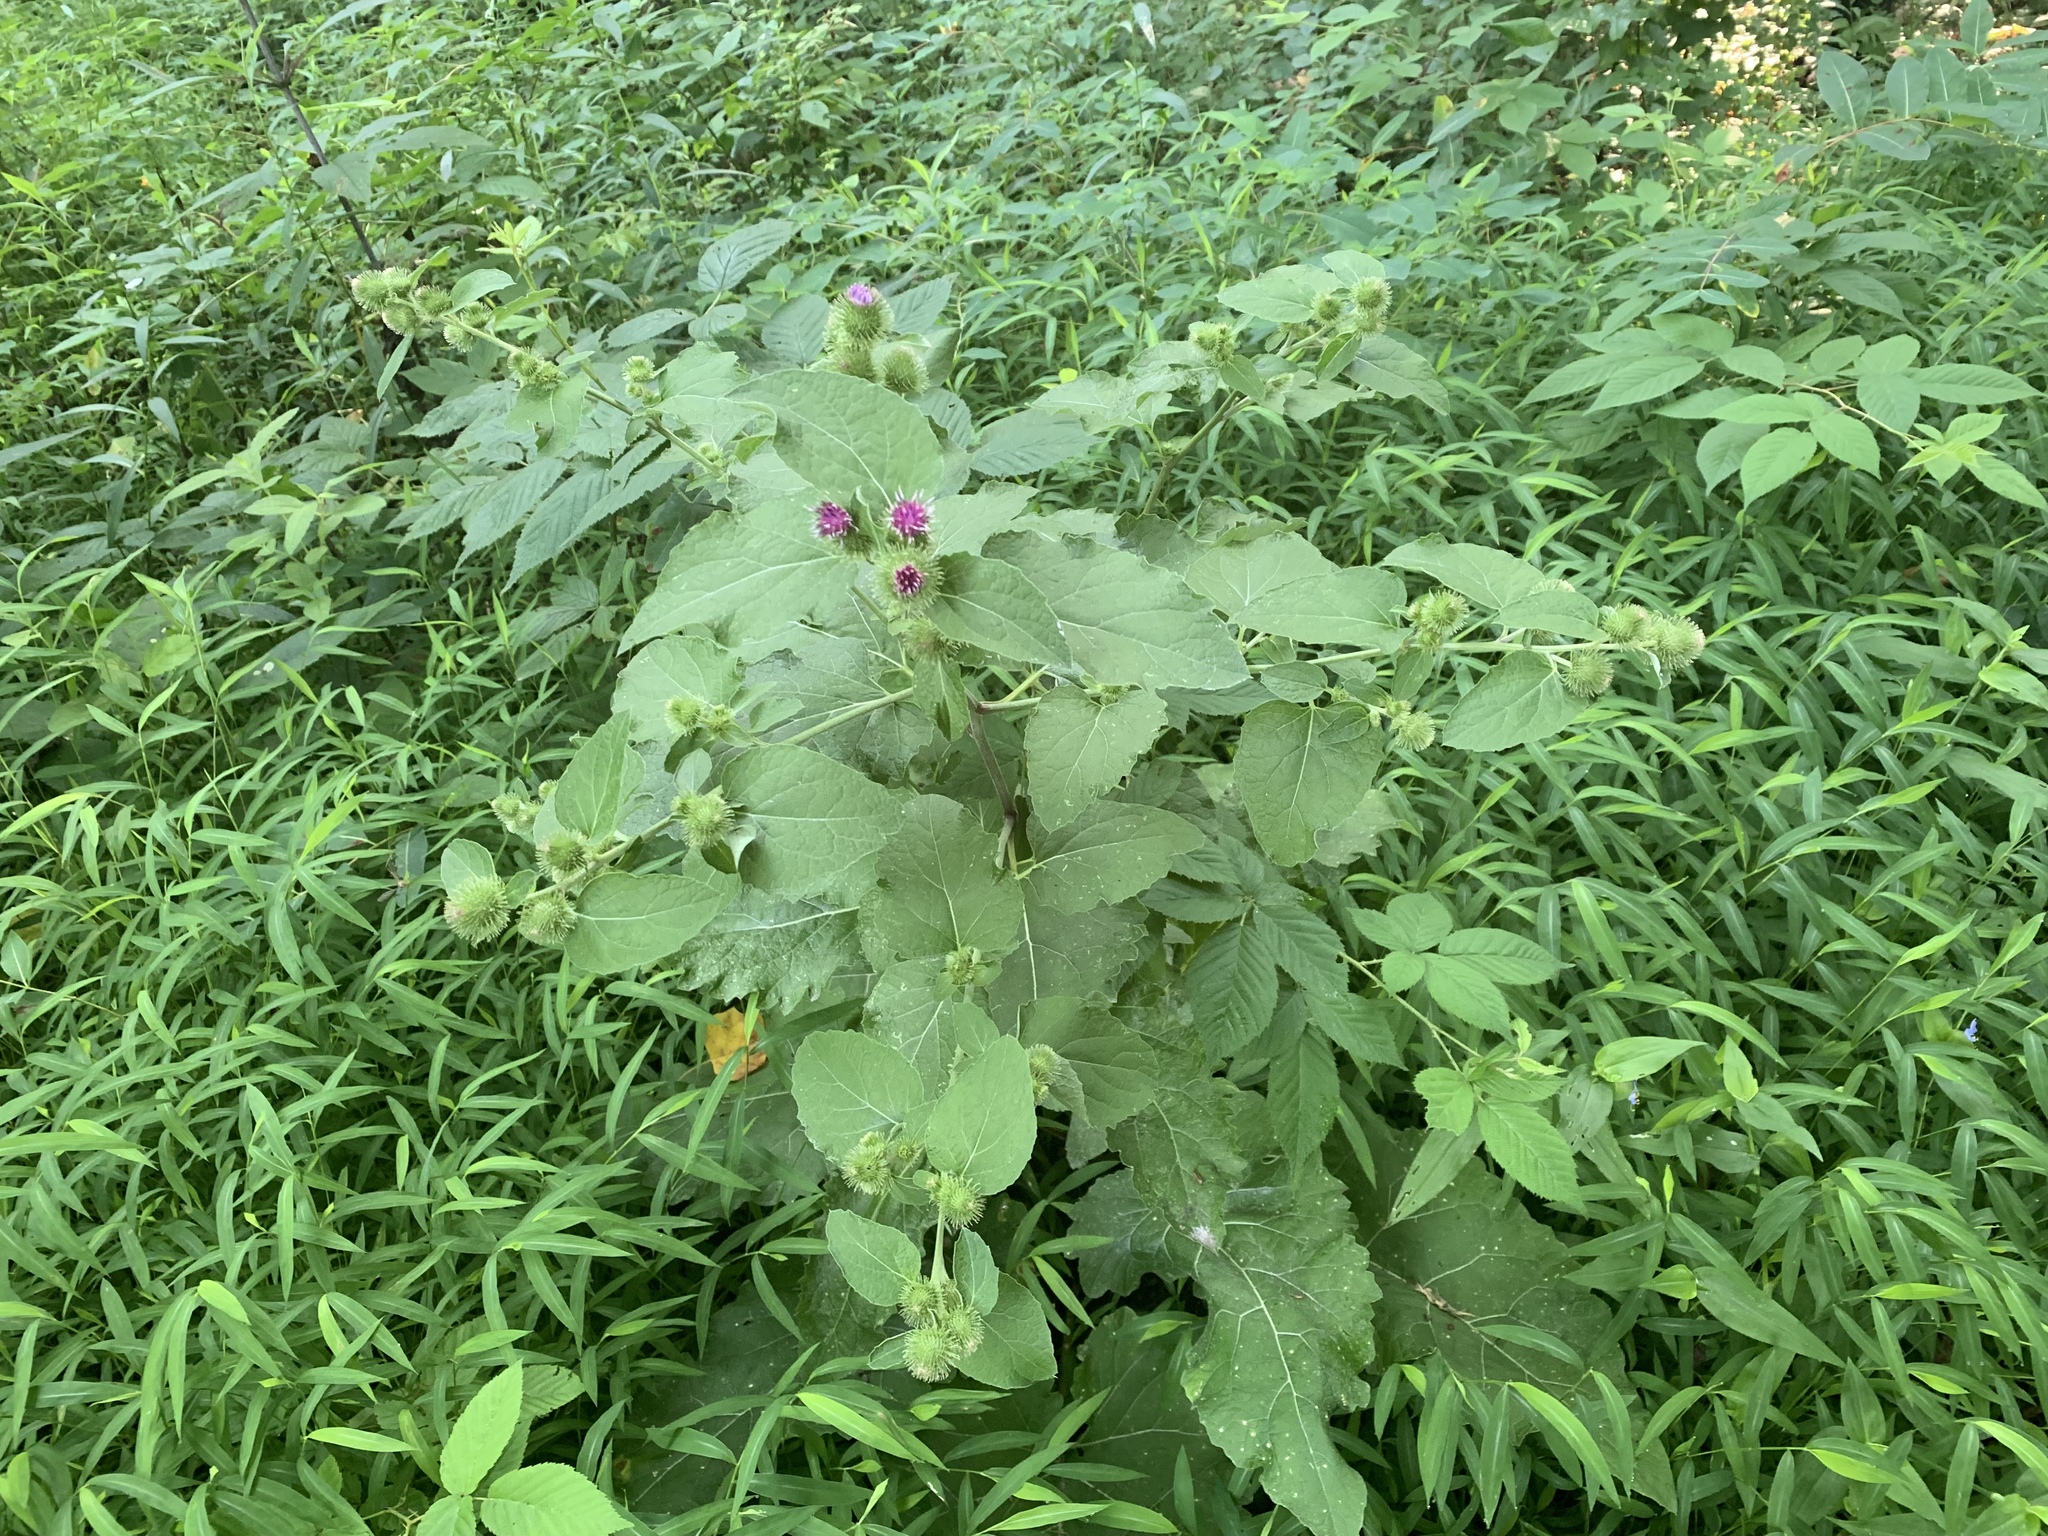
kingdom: Plantae
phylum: Tracheophyta
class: Magnoliopsida
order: Asterales
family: Asteraceae
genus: Arctium
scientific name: Arctium minus
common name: Lesser burdock
